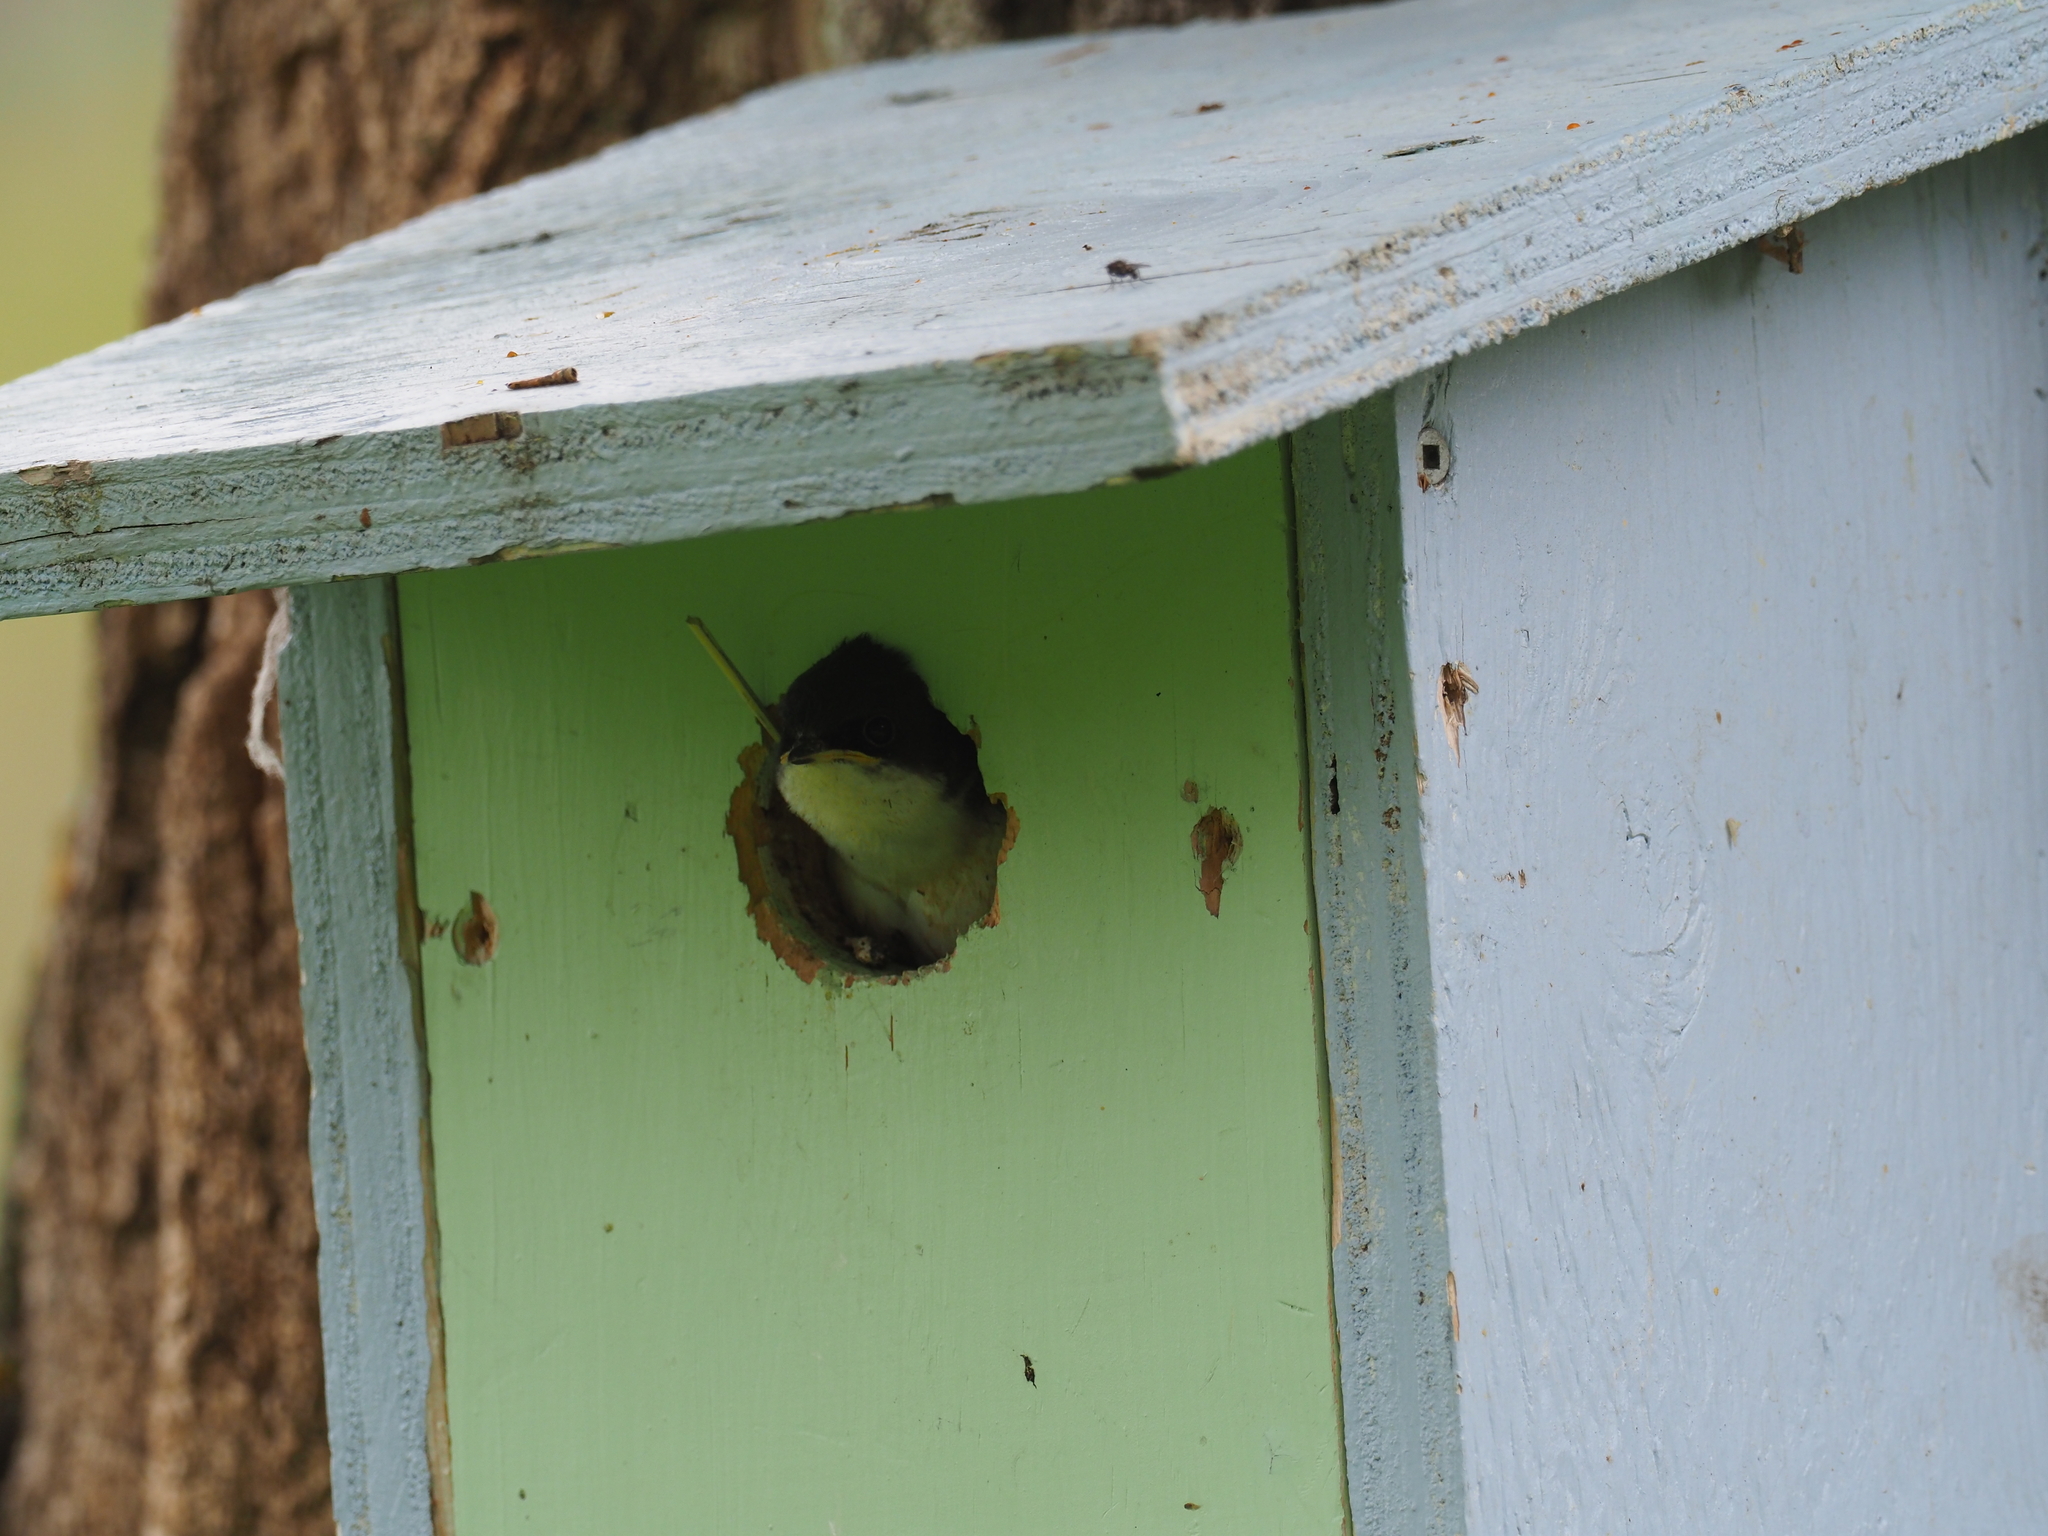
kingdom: Animalia
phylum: Chordata
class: Aves
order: Passeriformes
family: Hirundinidae
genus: Tachycineta
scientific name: Tachycineta bicolor
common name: Tree swallow
